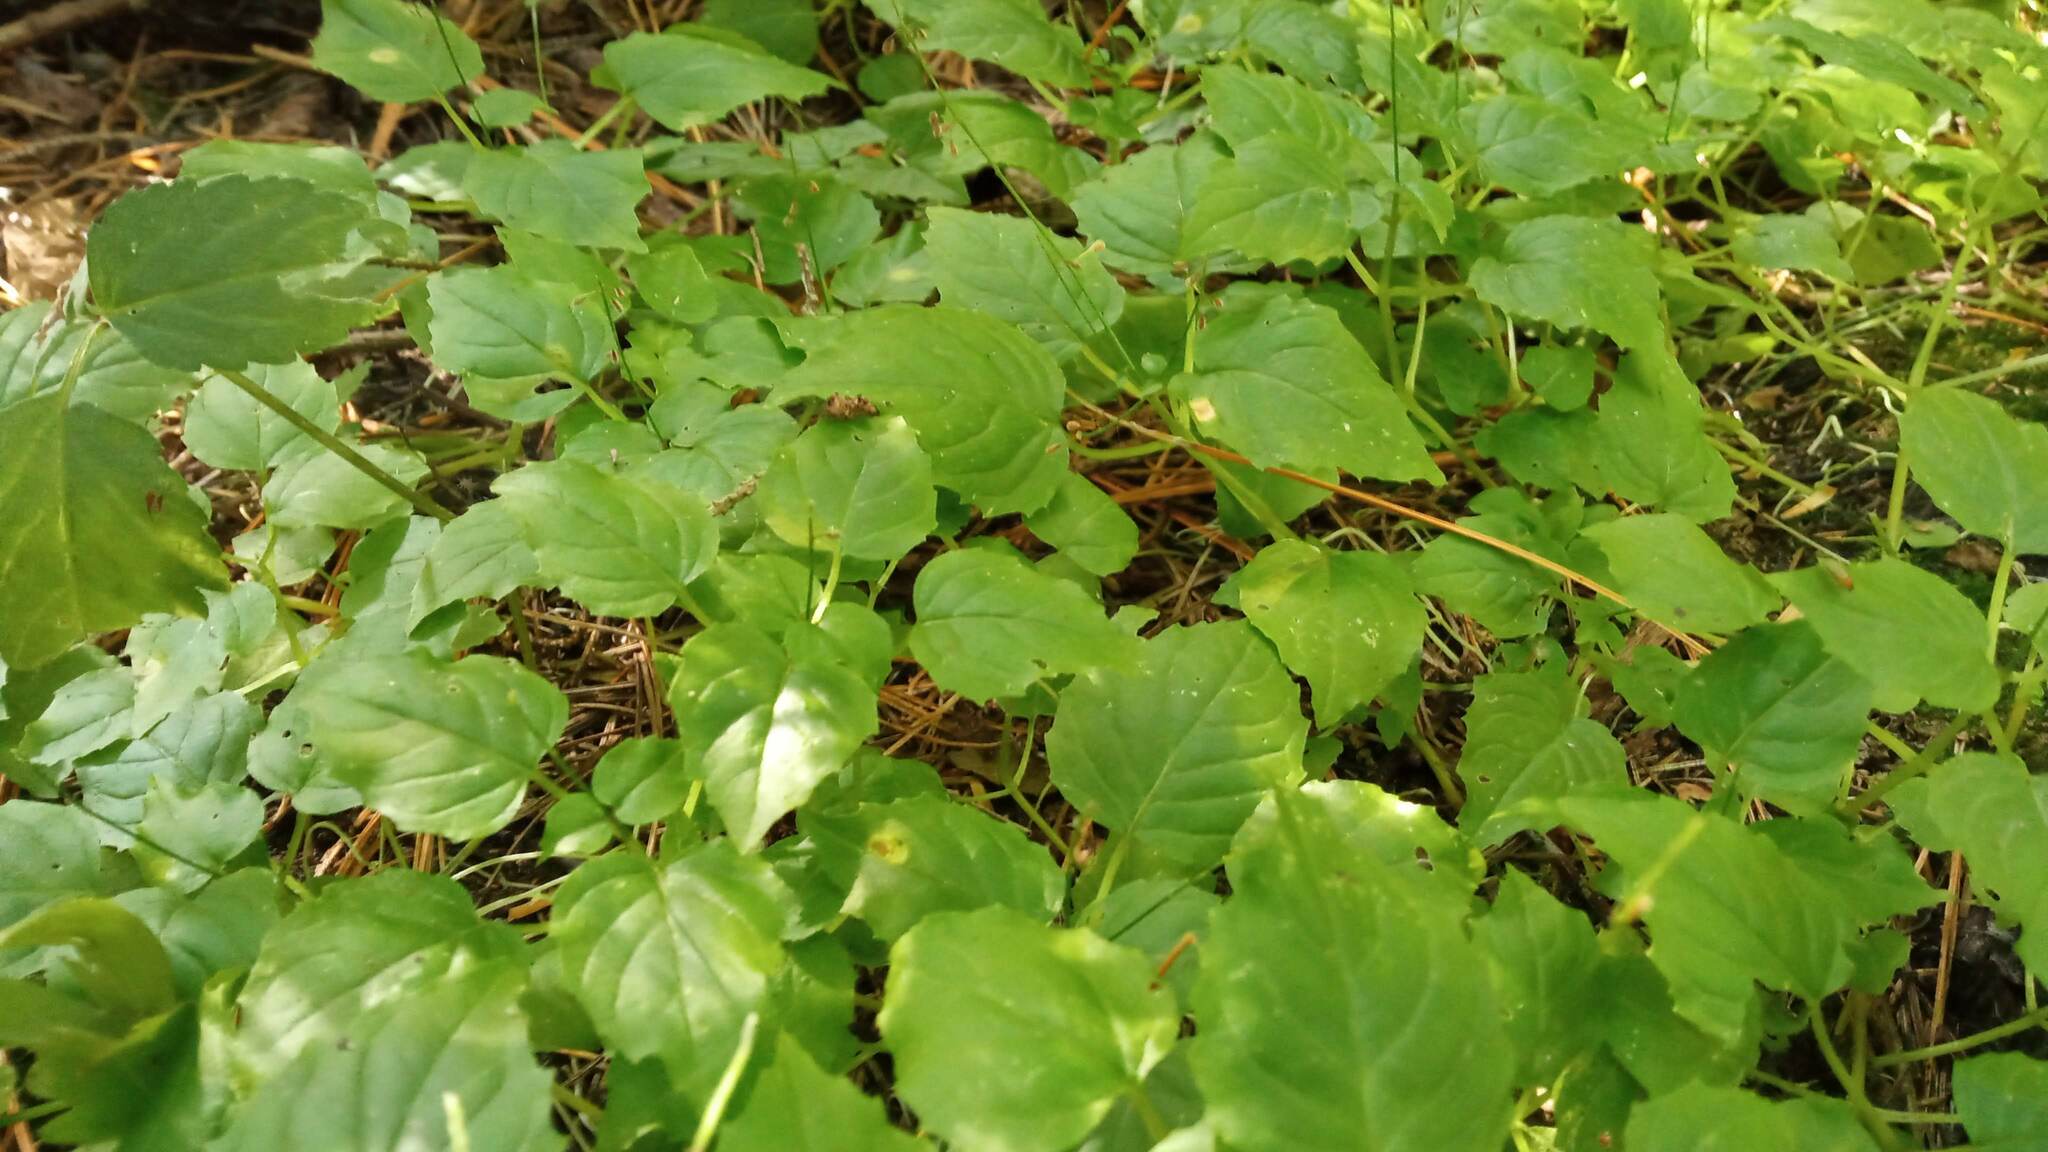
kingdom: Plantae
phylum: Tracheophyta
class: Magnoliopsida
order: Myrtales
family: Onagraceae
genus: Circaea
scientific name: Circaea alpina
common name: Alpine enchanter's-nightshade
